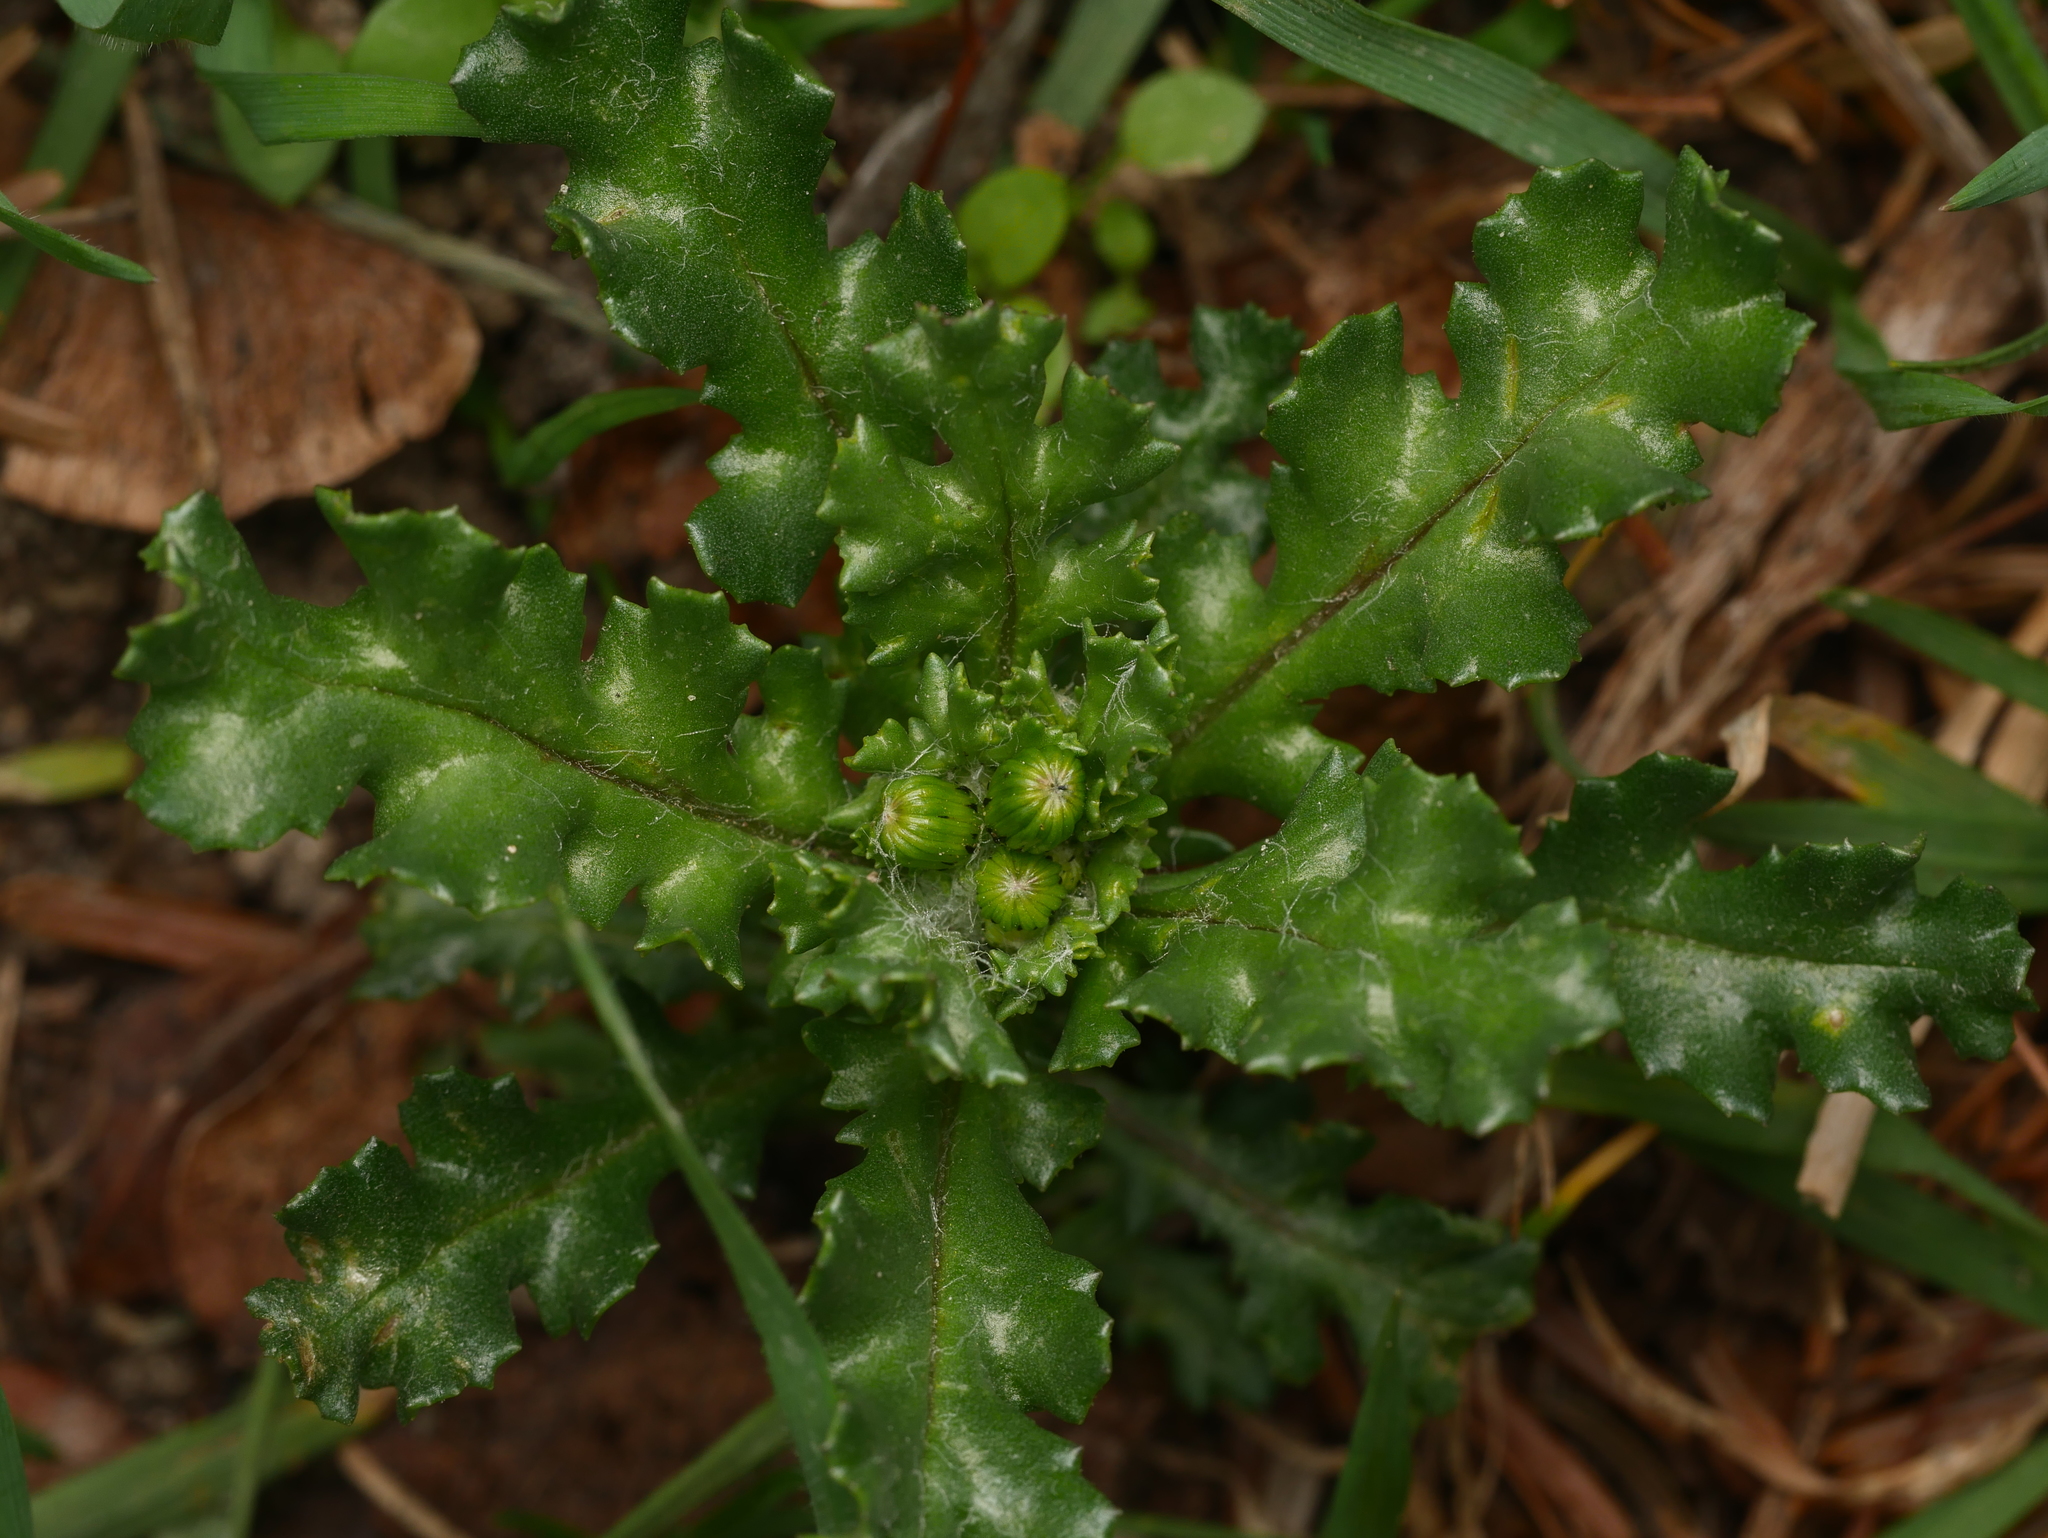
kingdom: Plantae
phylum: Tracheophyta
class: Magnoliopsida
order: Asterales
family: Asteraceae
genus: Senecio
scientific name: Senecio vulgaris
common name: Old-man-in-the-spring
